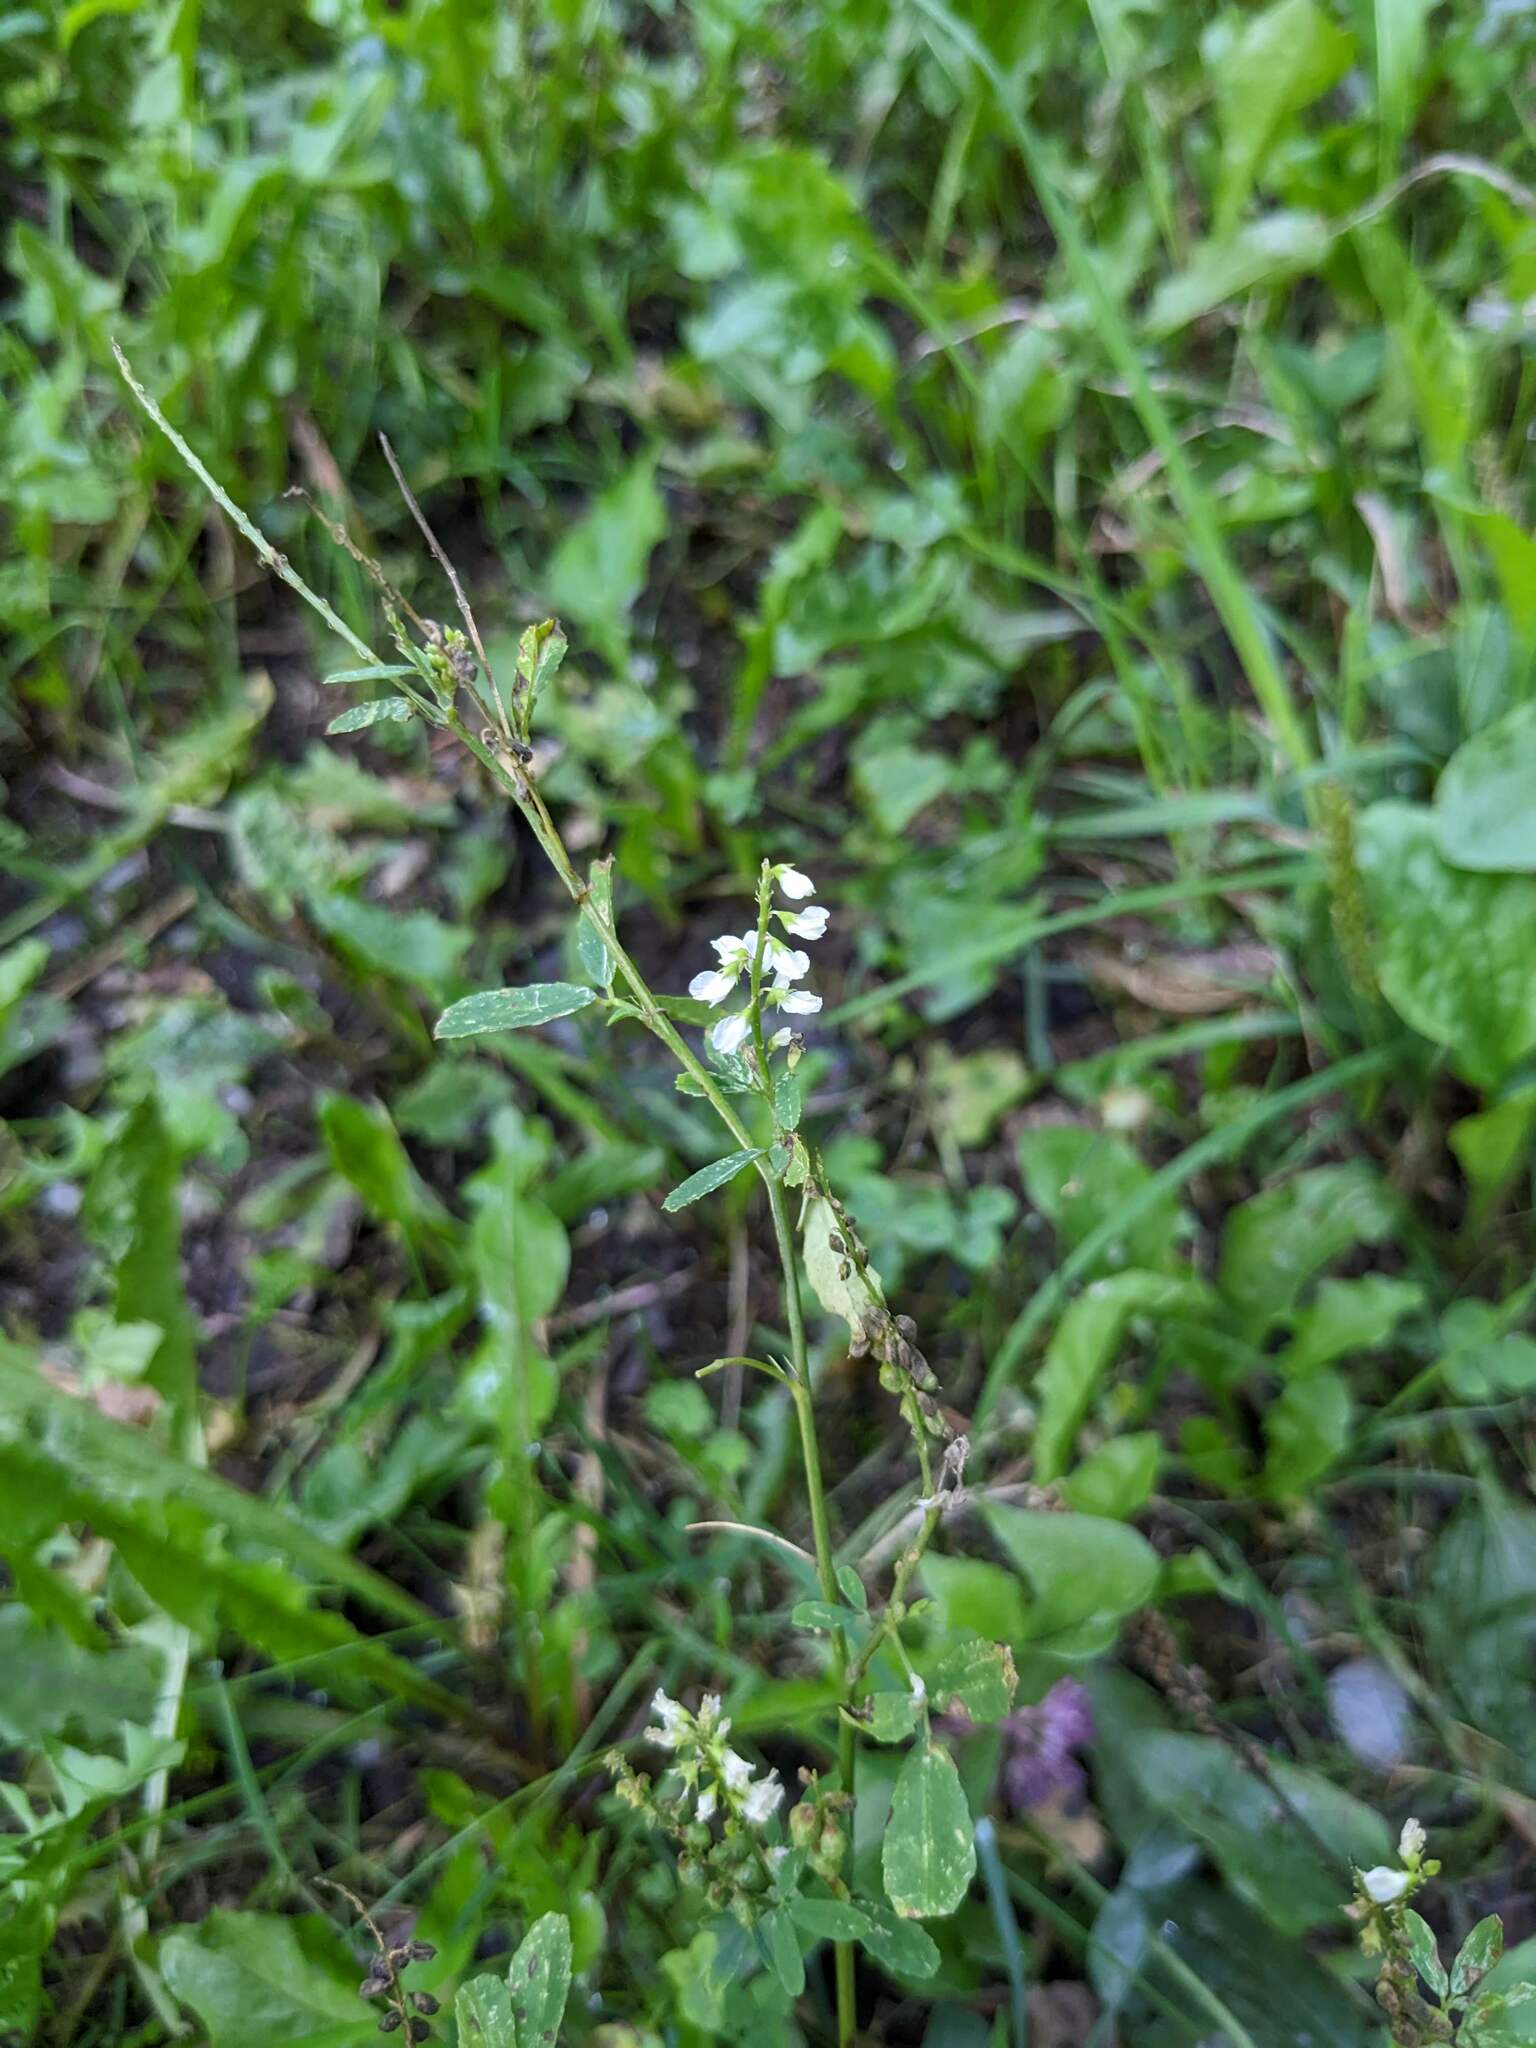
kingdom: Plantae
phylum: Tracheophyta
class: Magnoliopsida
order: Fabales
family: Fabaceae
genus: Melilotus
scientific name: Melilotus albus
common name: White melilot
